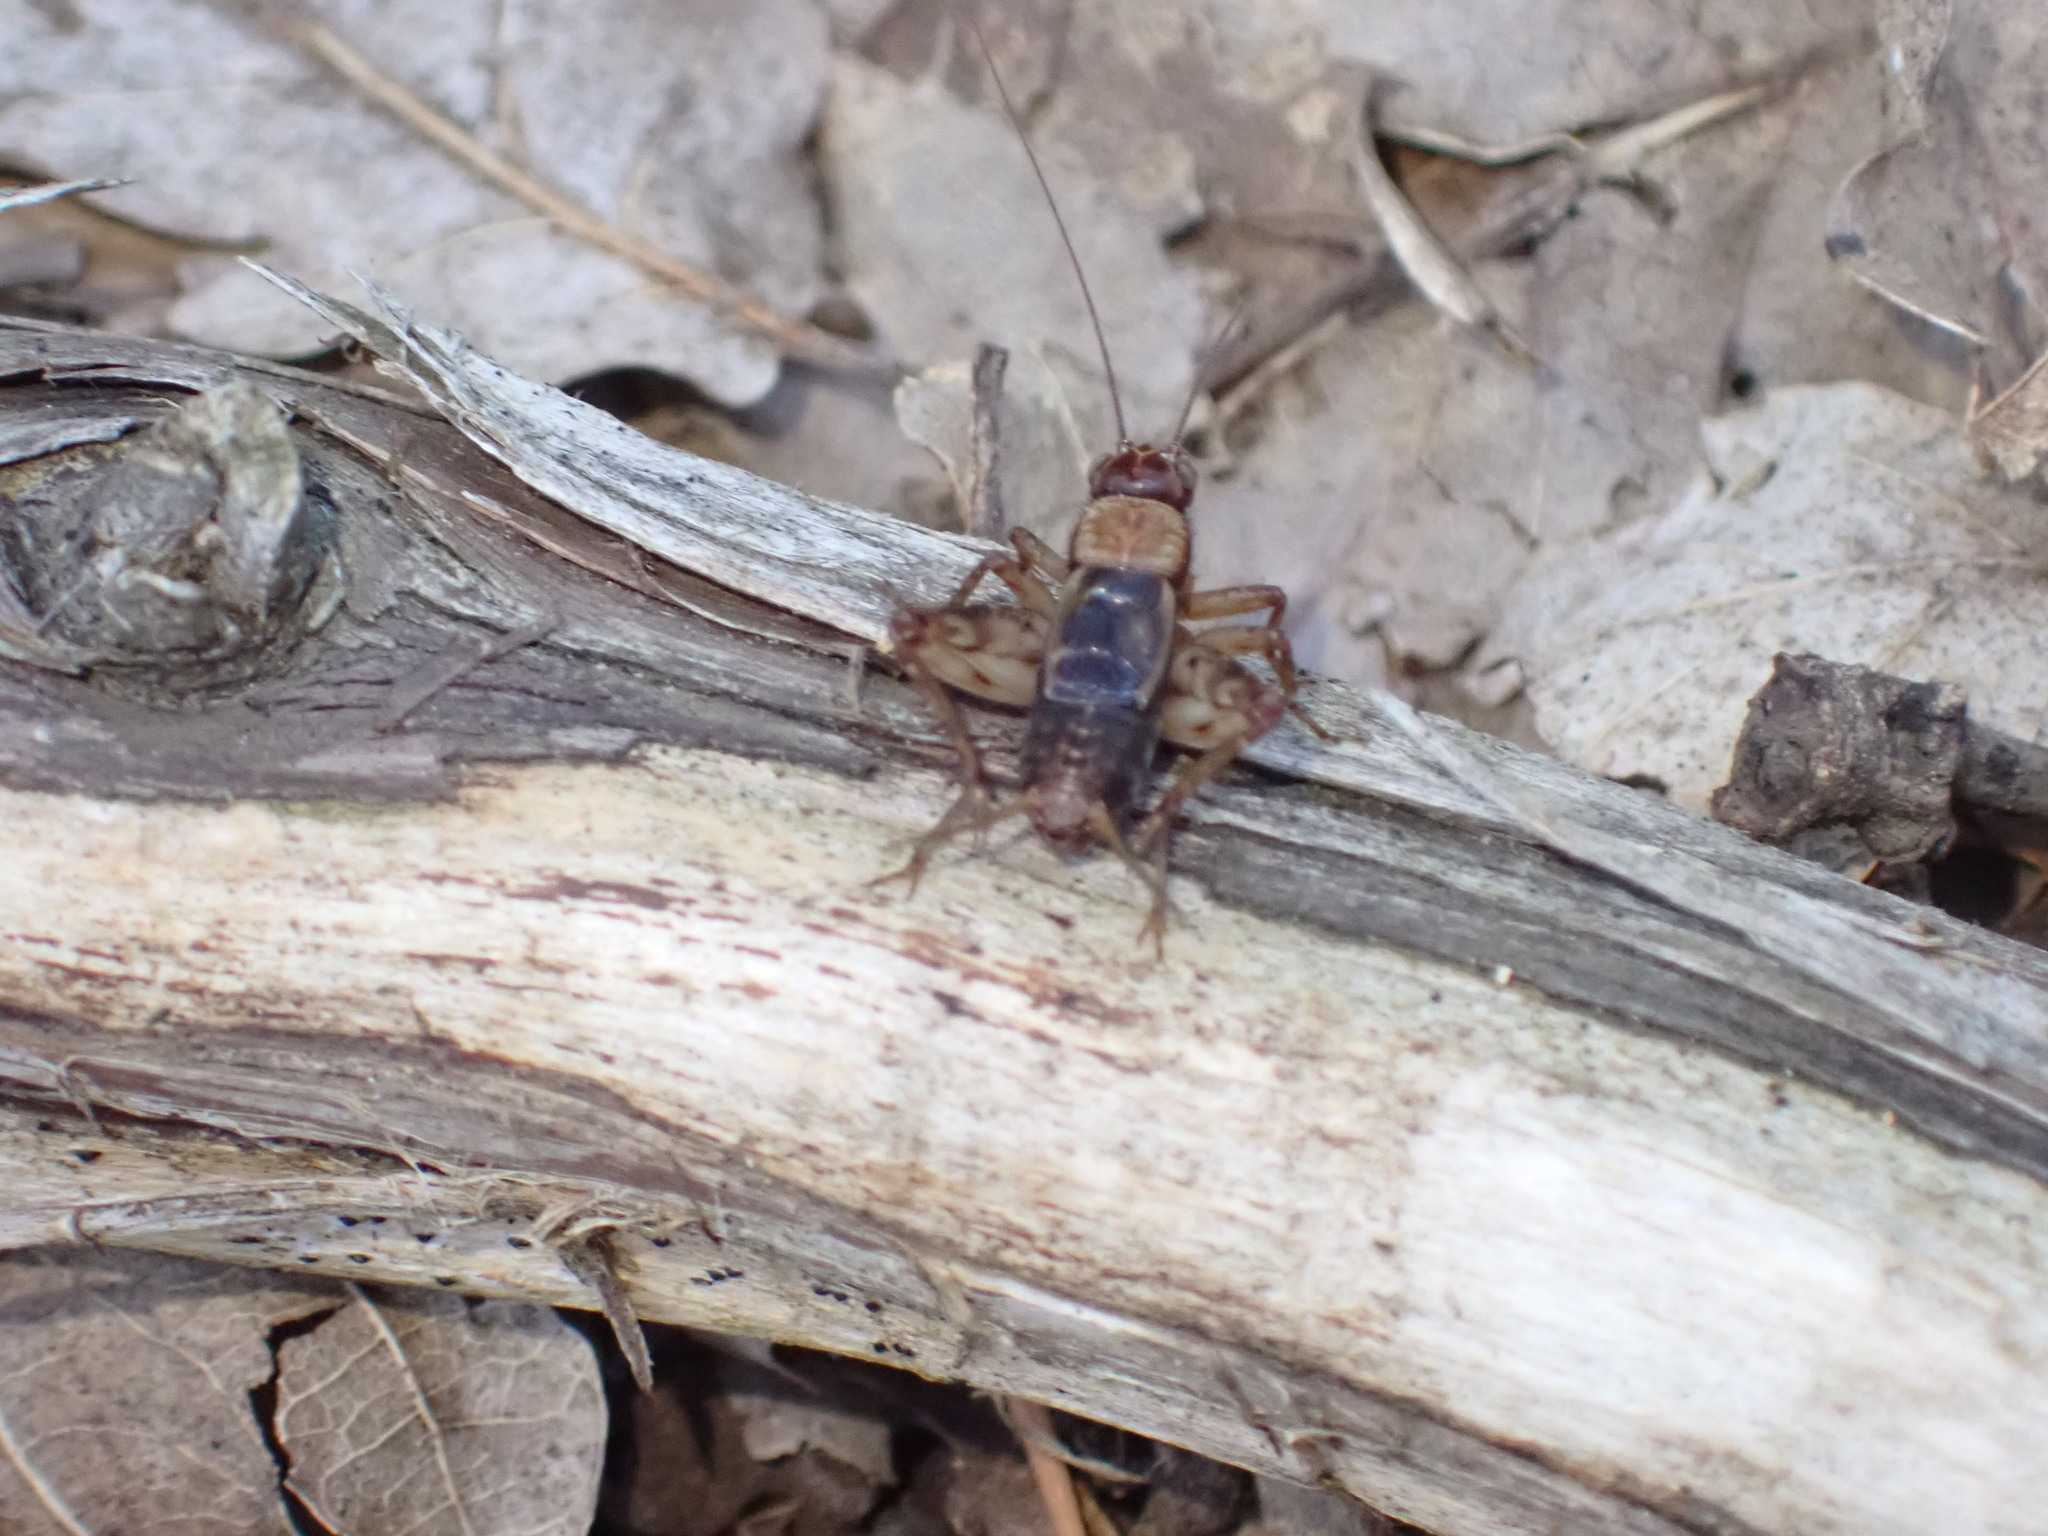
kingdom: Animalia
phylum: Arthropoda
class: Insecta
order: Orthoptera
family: Trigonidiidae
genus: Nemobius
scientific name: Nemobius sylvestris
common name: Wood-cricket
